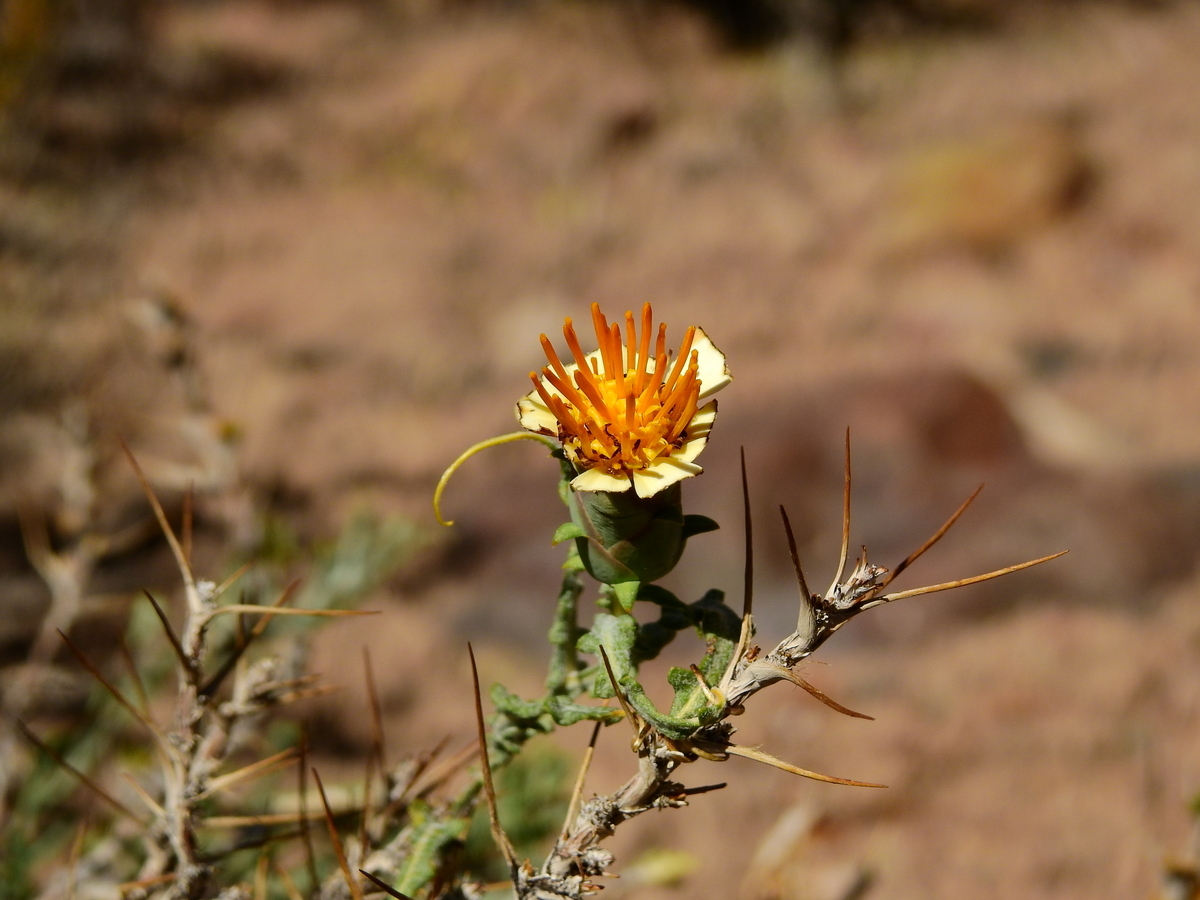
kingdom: Plantae
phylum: Tracheophyta
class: Magnoliopsida
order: Asterales
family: Asteraceae
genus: Mutisia
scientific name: Mutisia sinuata
